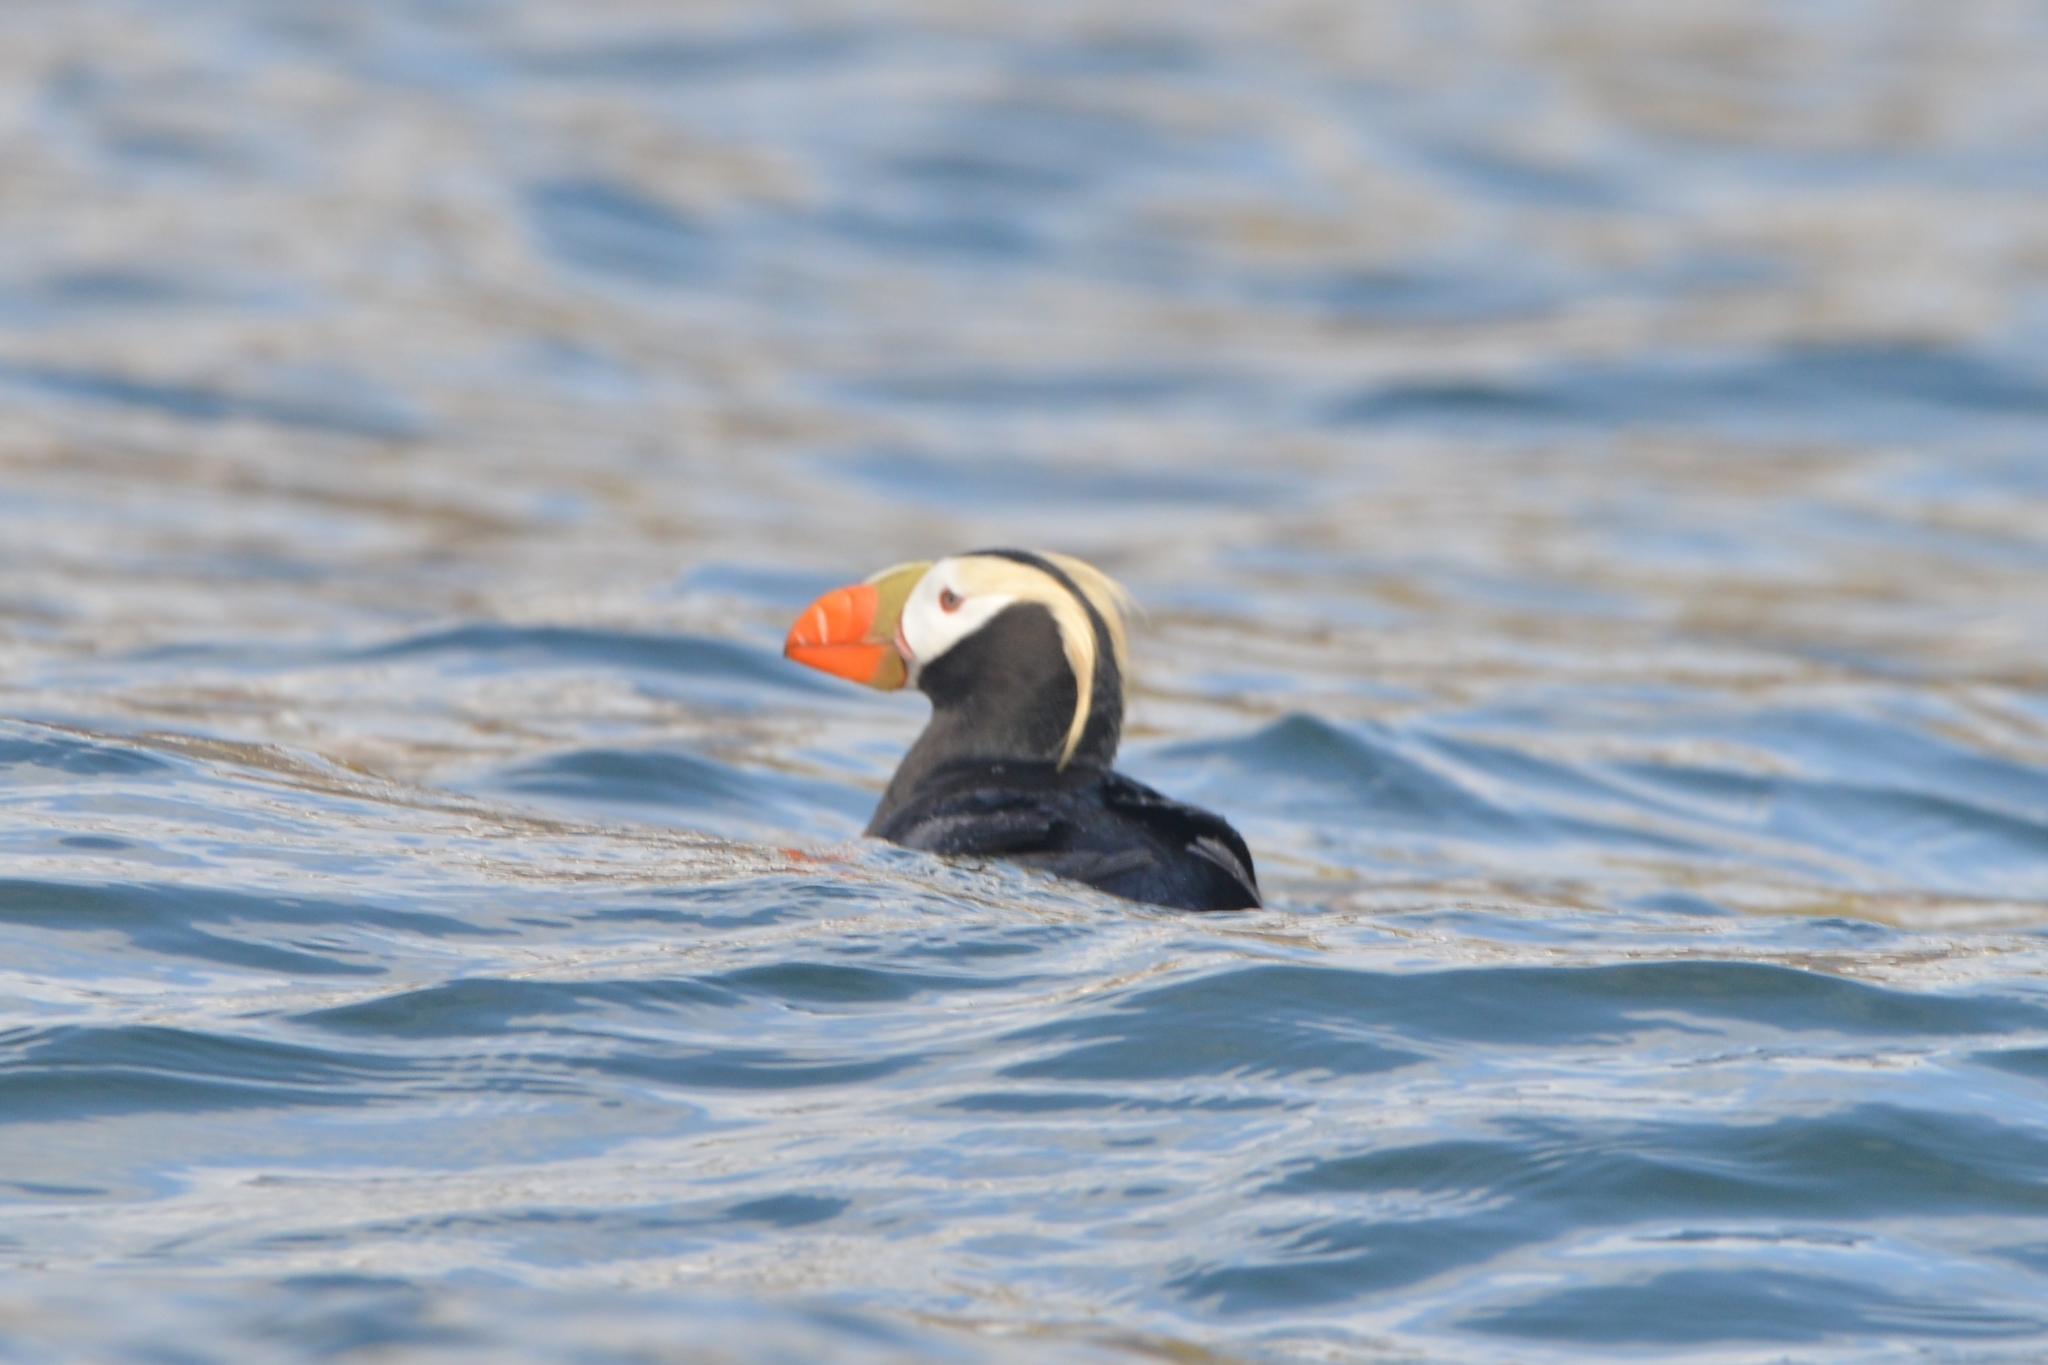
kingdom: Animalia
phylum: Chordata
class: Aves
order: Charadriiformes
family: Alcidae
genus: Fratercula
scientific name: Fratercula cirrhata
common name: Tufted puffin
